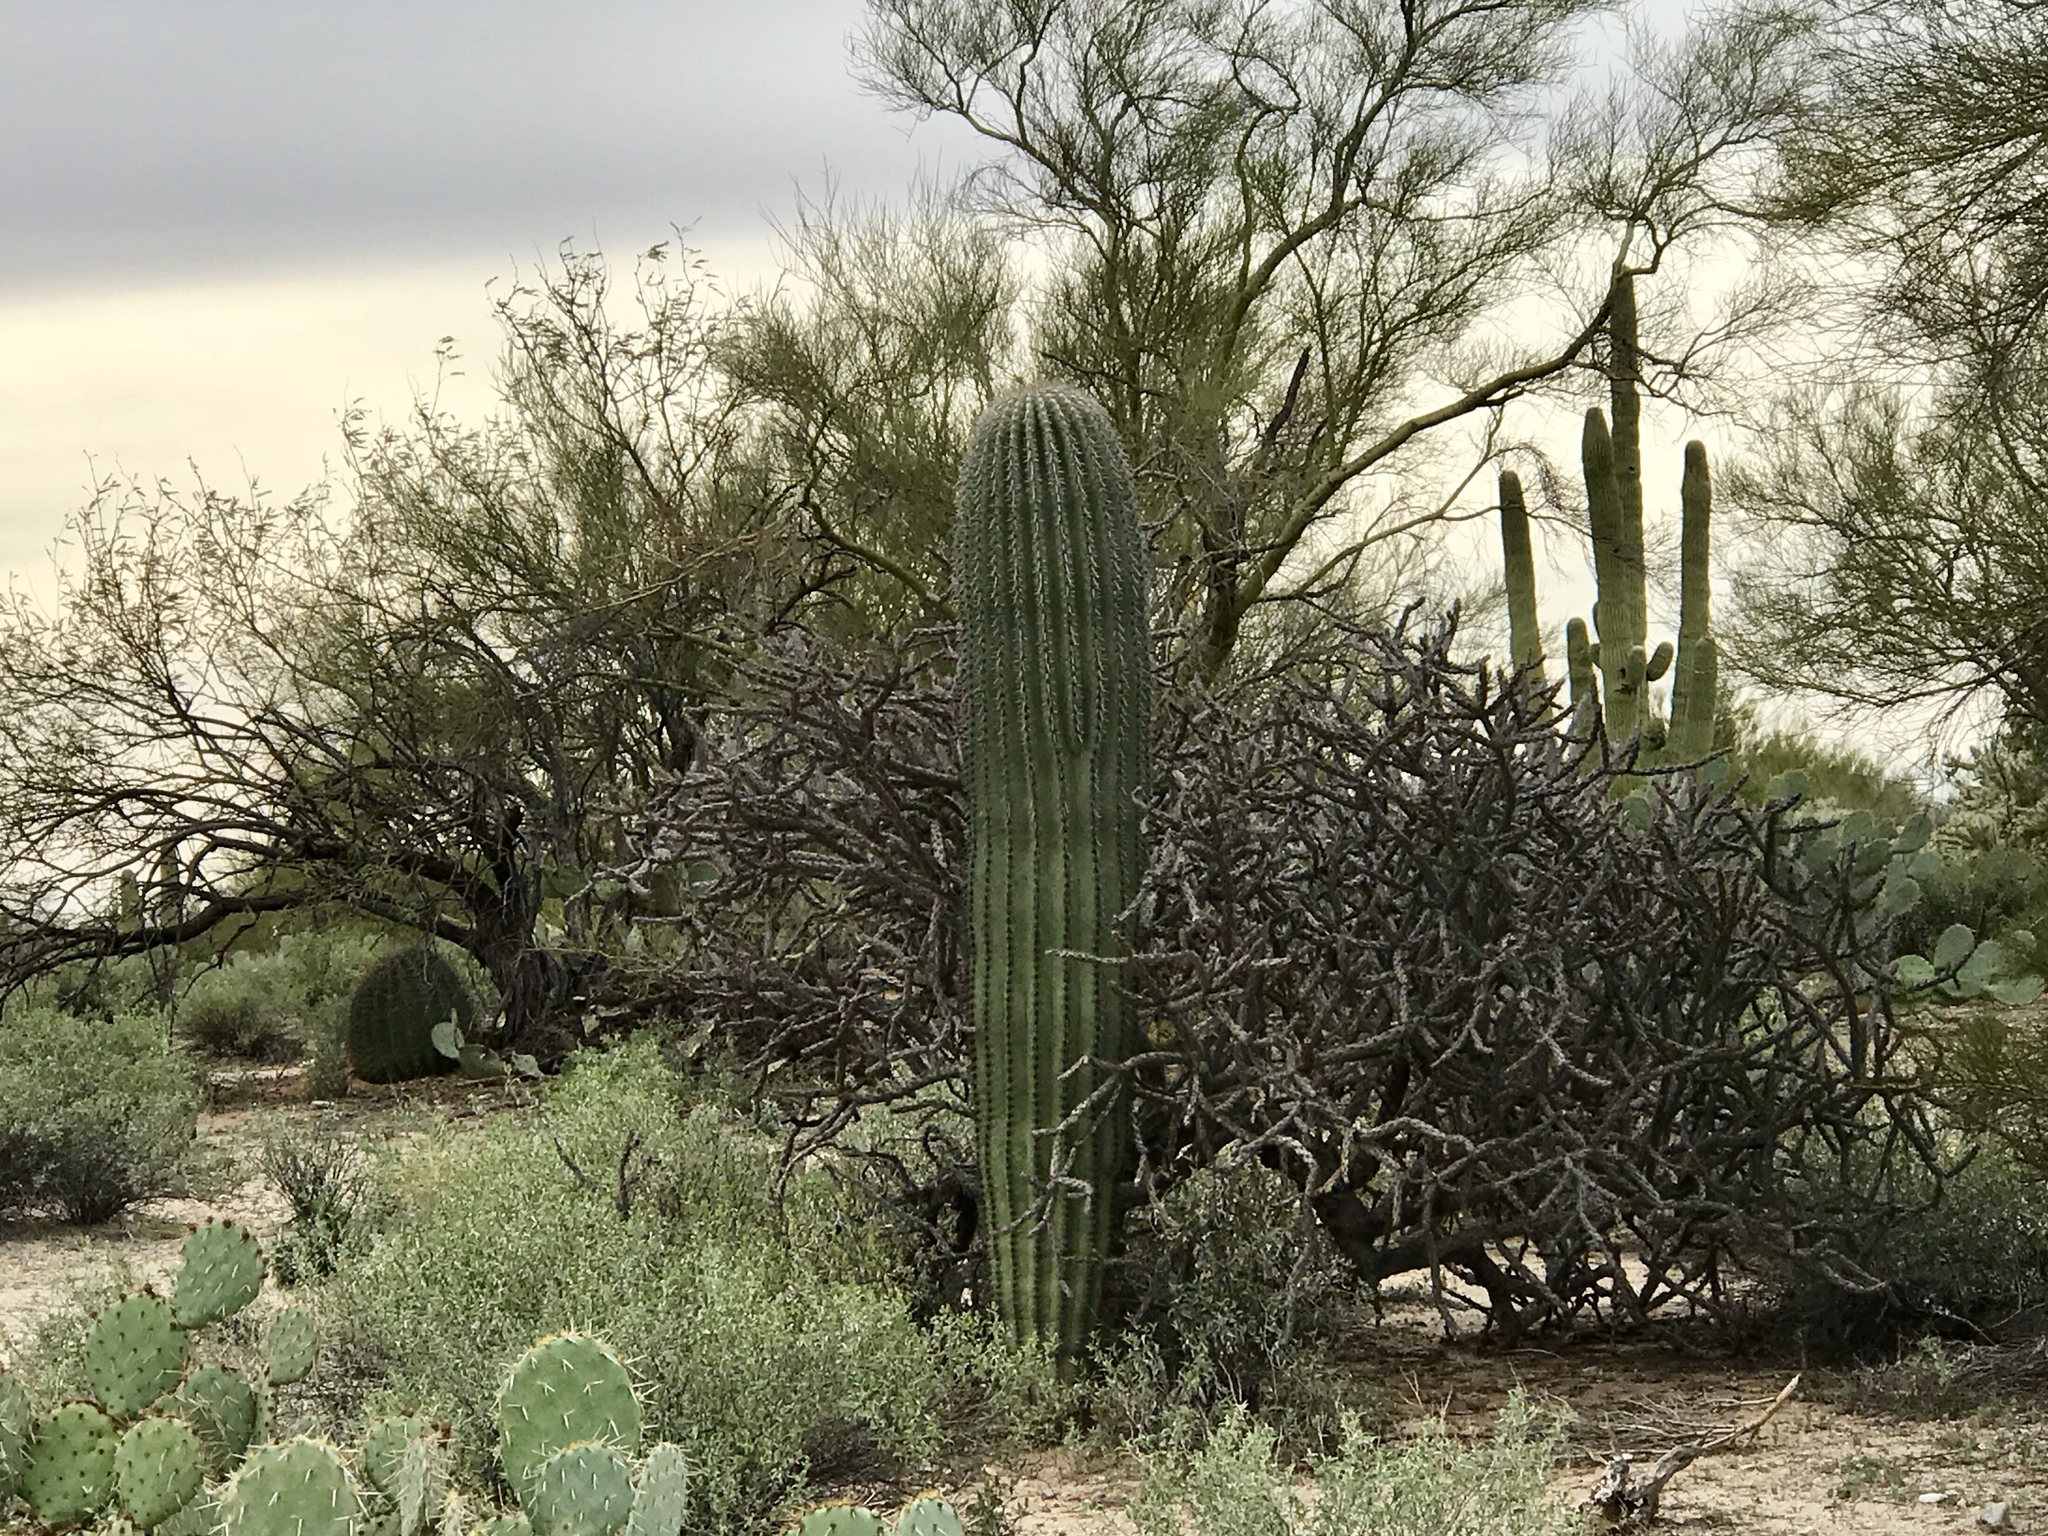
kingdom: Plantae
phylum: Tracheophyta
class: Magnoliopsida
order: Caryophyllales
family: Cactaceae
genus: Carnegiea
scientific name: Carnegiea gigantea
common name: Saguaro
